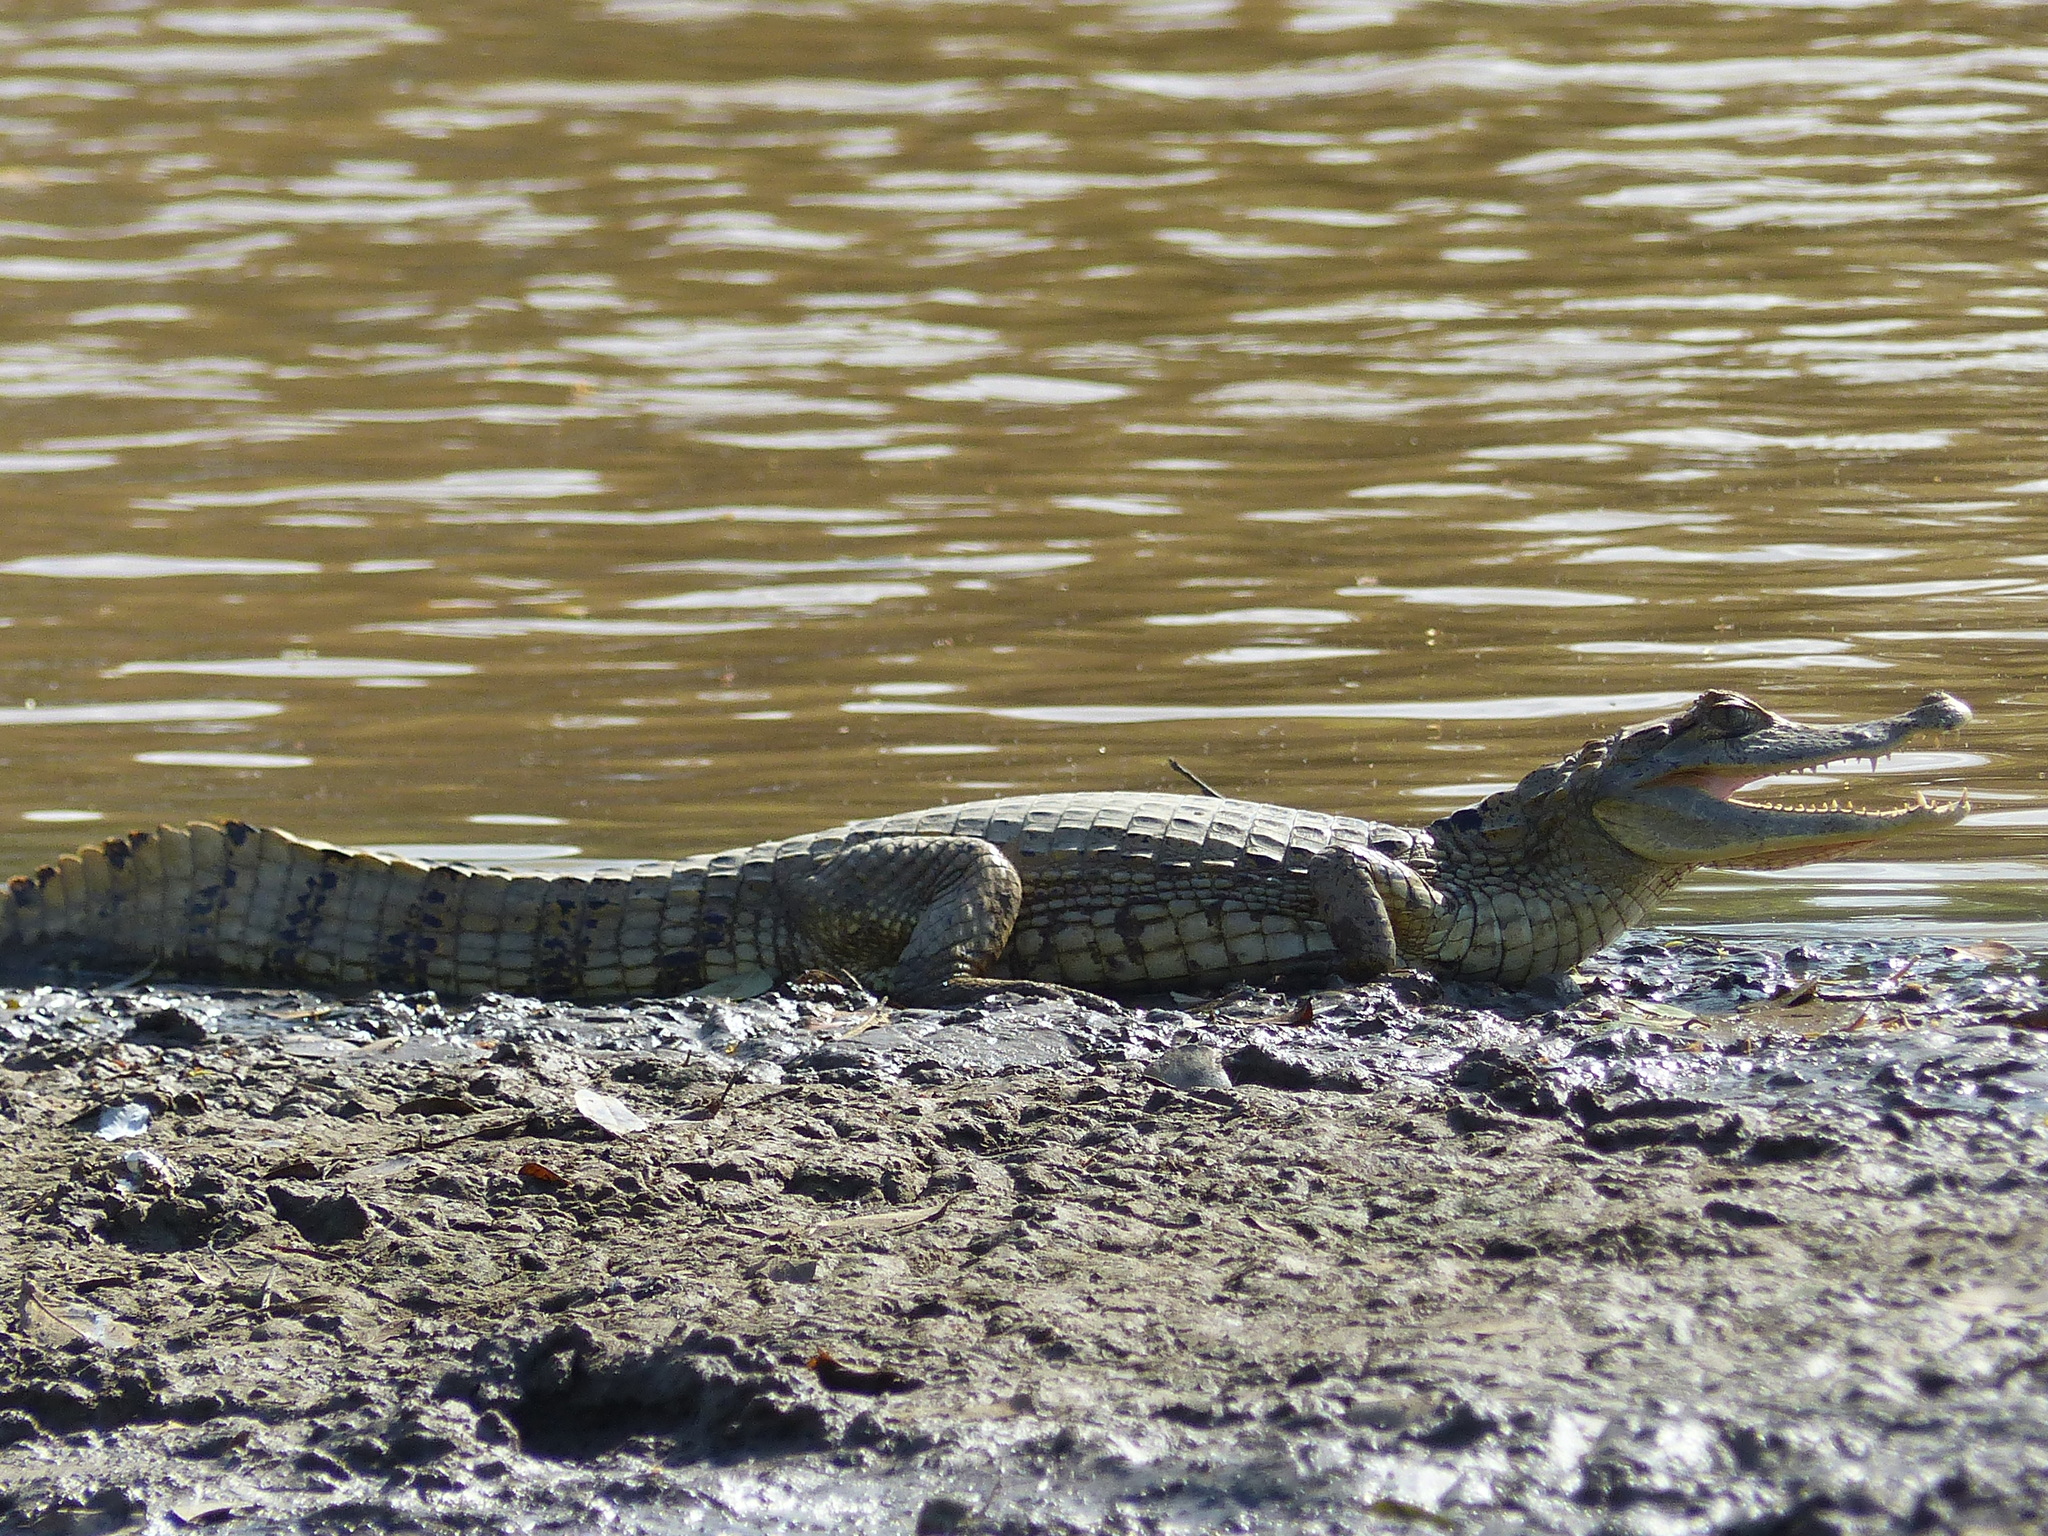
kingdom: Animalia
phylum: Chordata
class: Crocodylia
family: Alligatoridae
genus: Caiman
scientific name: Caiman crocodilus
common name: Common caiman
